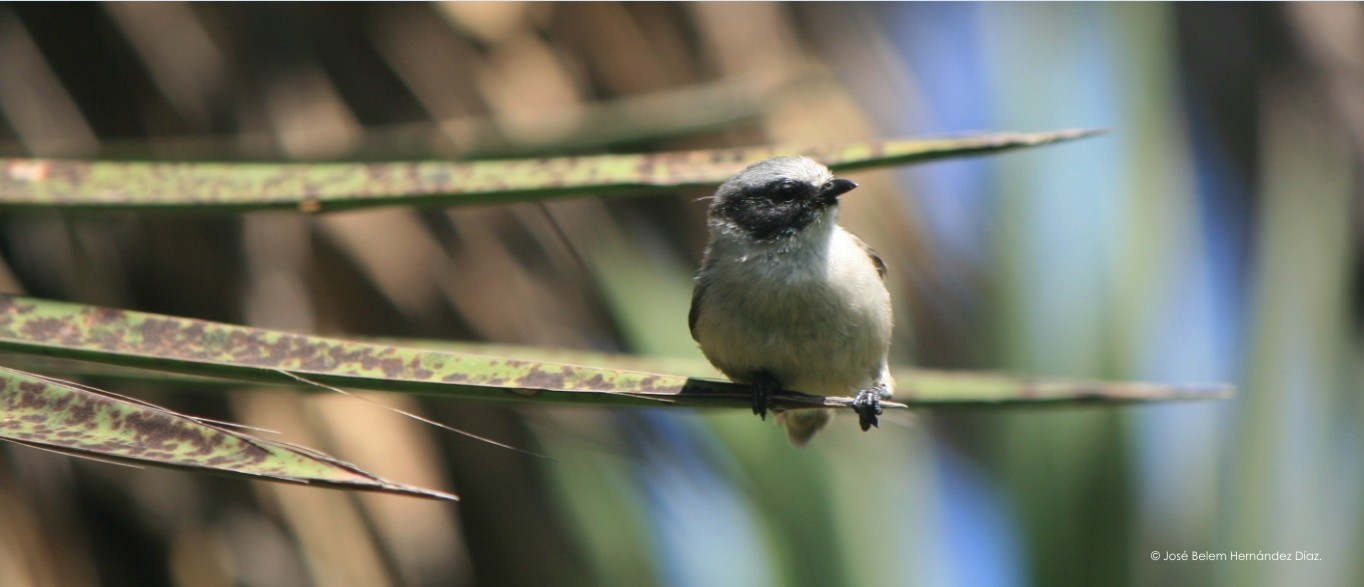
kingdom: Animalia
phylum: Chordata
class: Aves
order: Passeriformes
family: Aegithalidae
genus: Psaltriparus
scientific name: Psaltriparus minimus
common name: American bushtit
